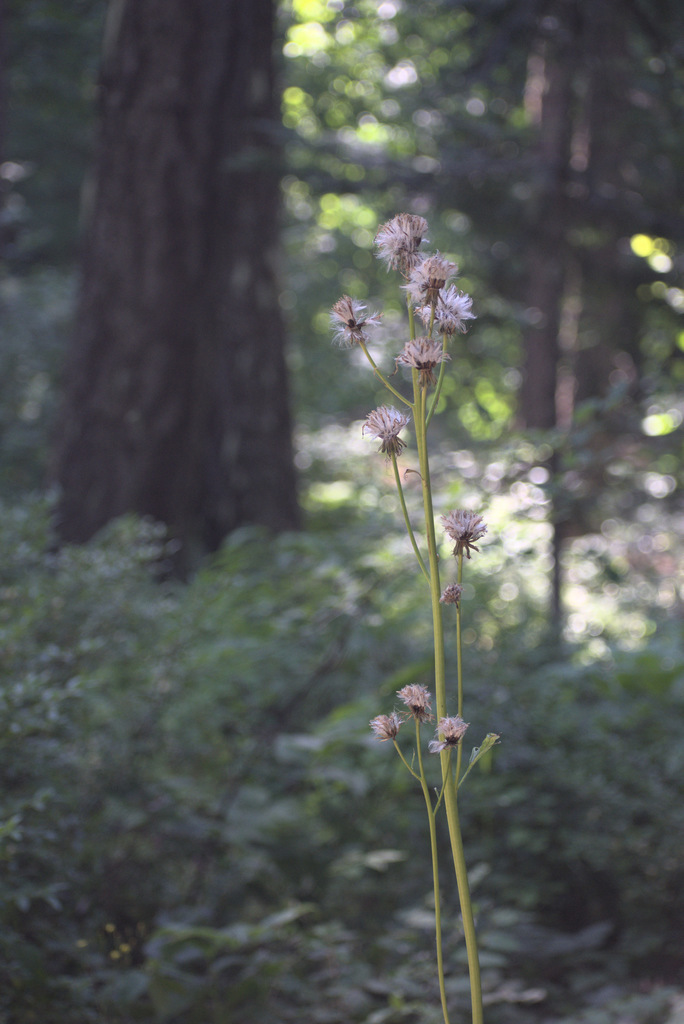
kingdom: Plantae
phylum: Tracheophyta
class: Magnoliopsida
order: Ranunculales
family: Ranunculaceae
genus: Trautvetteria
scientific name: Trautvetteria carolinensis
